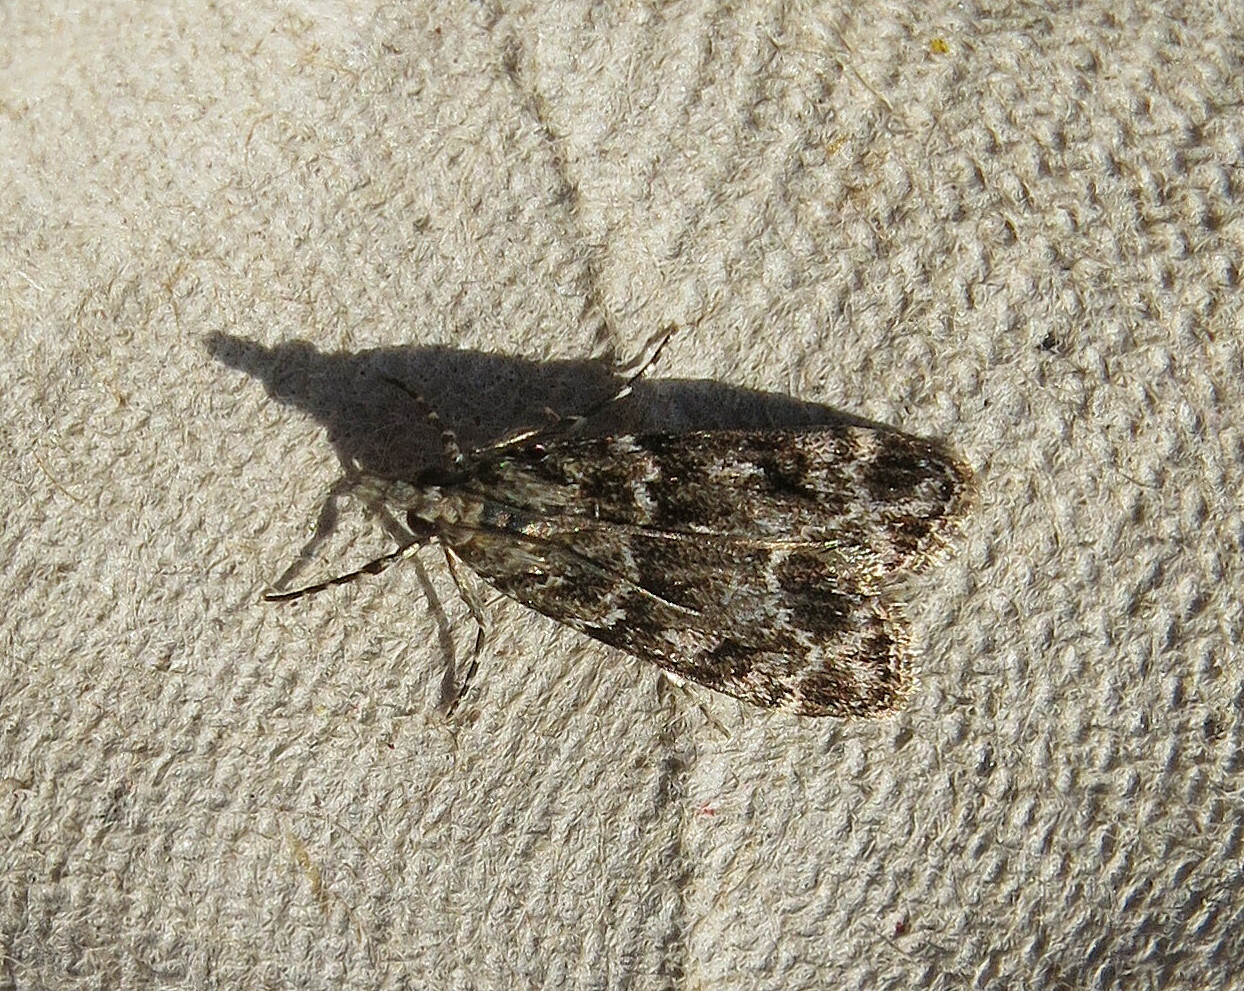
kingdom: Animalia
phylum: Arthropoda
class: Insecta
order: Lepidoptera
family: Crambidae
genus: Eudonia
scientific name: Eudonia mercurella
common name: Small grey
